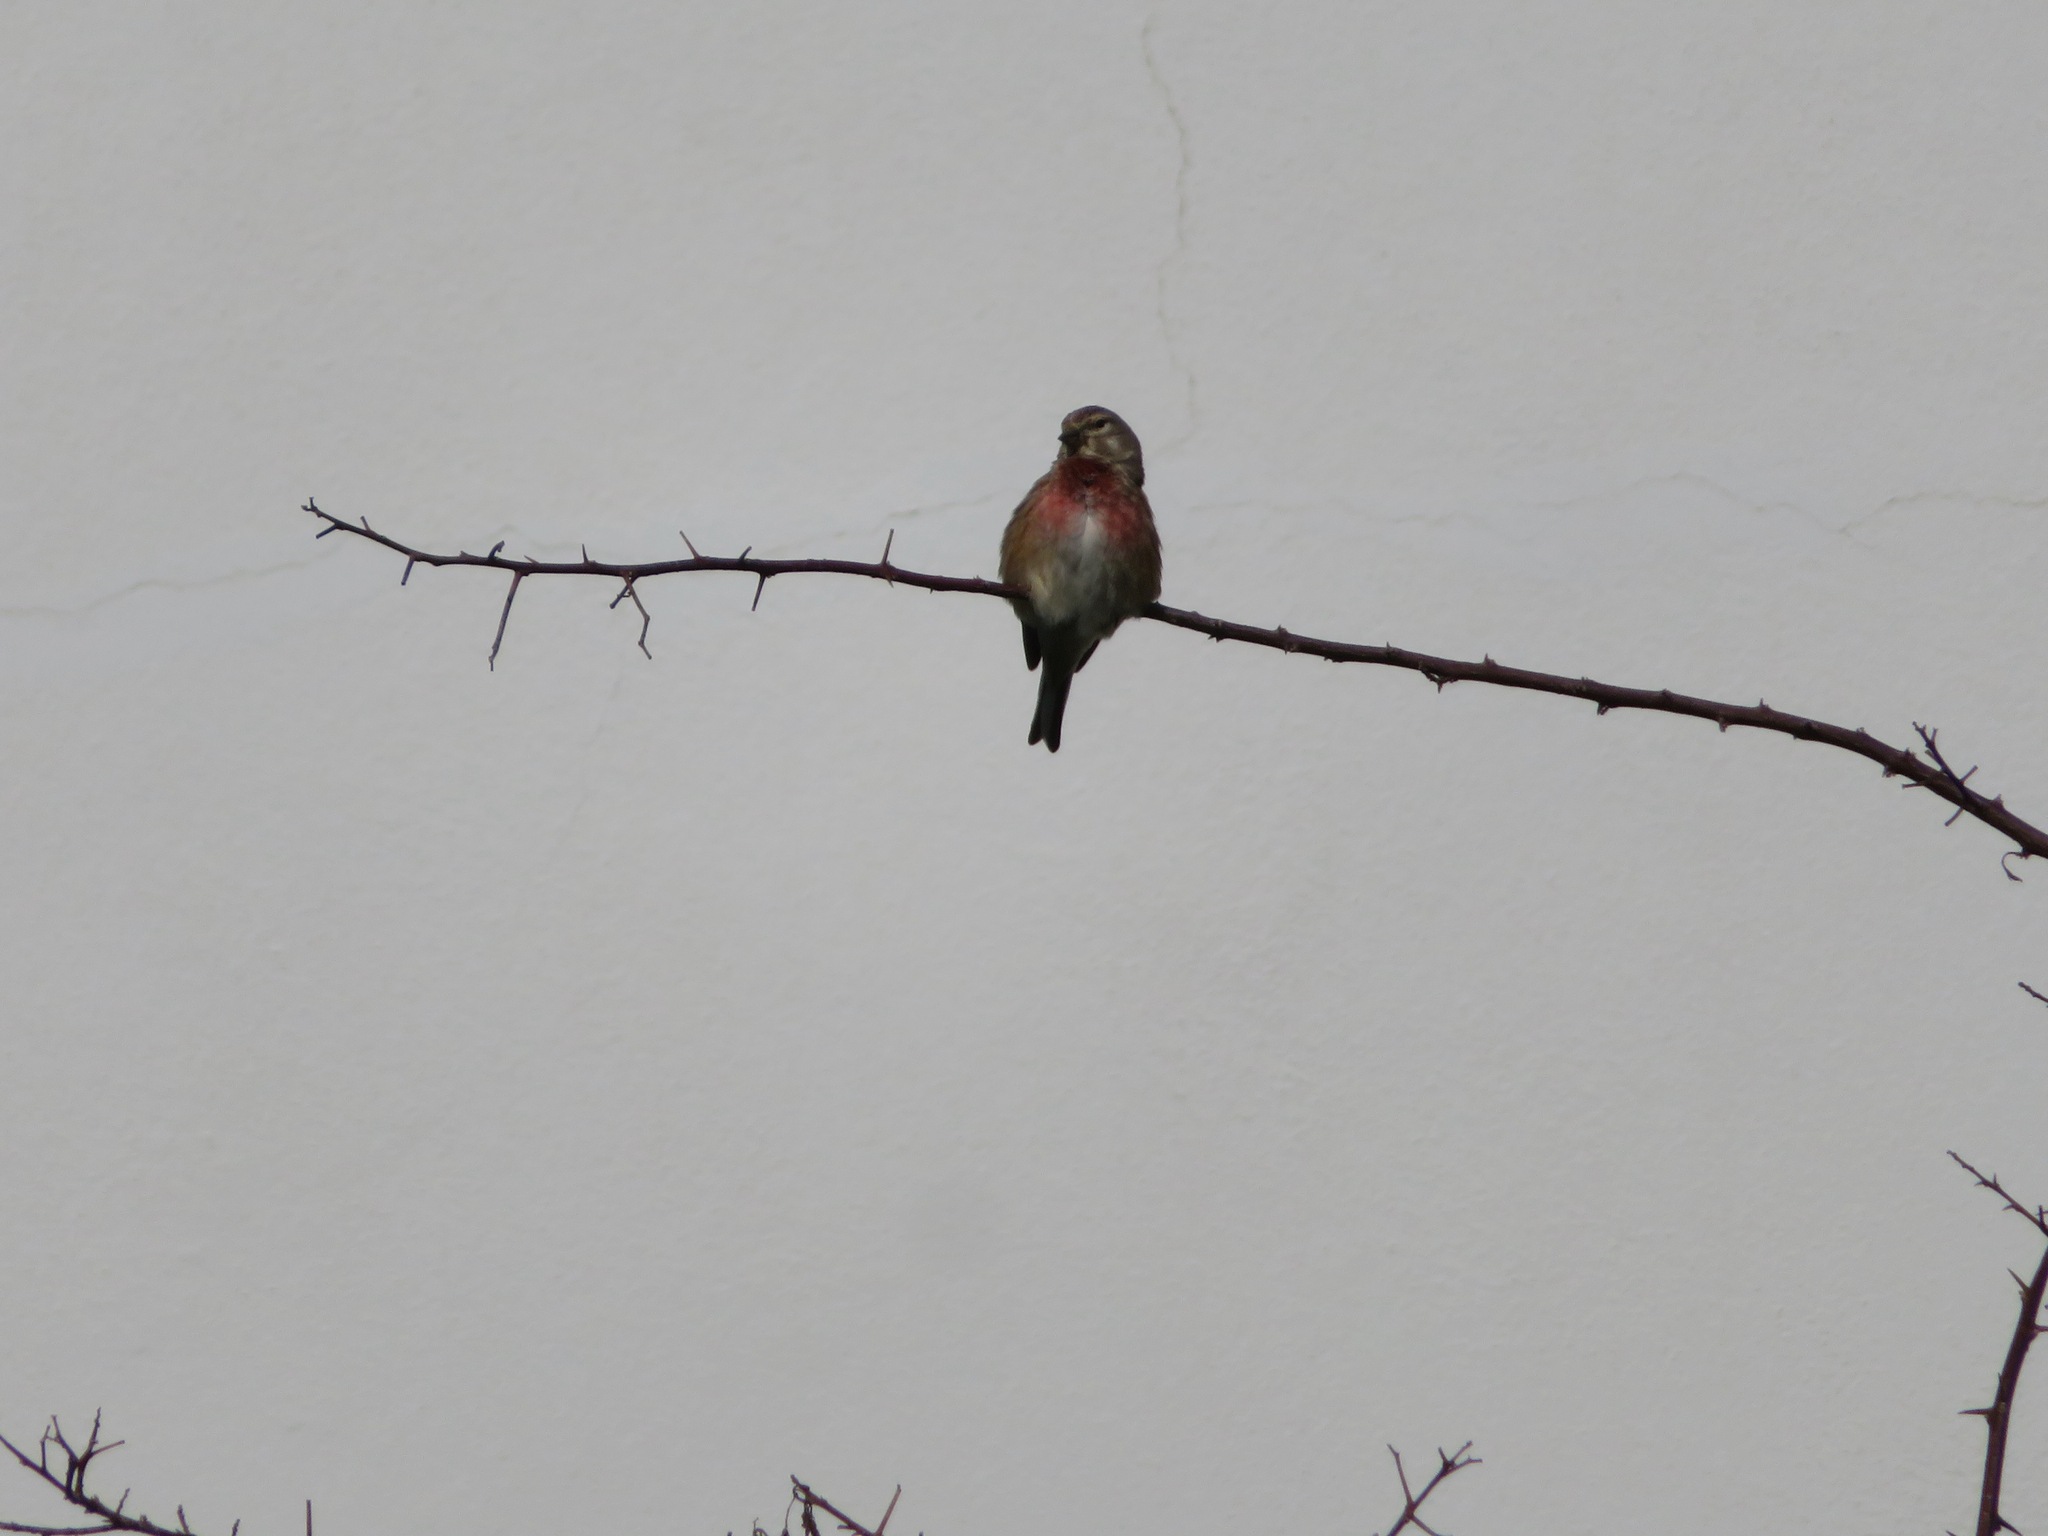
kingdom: Animalia
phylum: Chordata
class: Aves
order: Passeriformes
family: Fringillidae
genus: Linaria
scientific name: Linaria cannabina
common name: Common linnet
